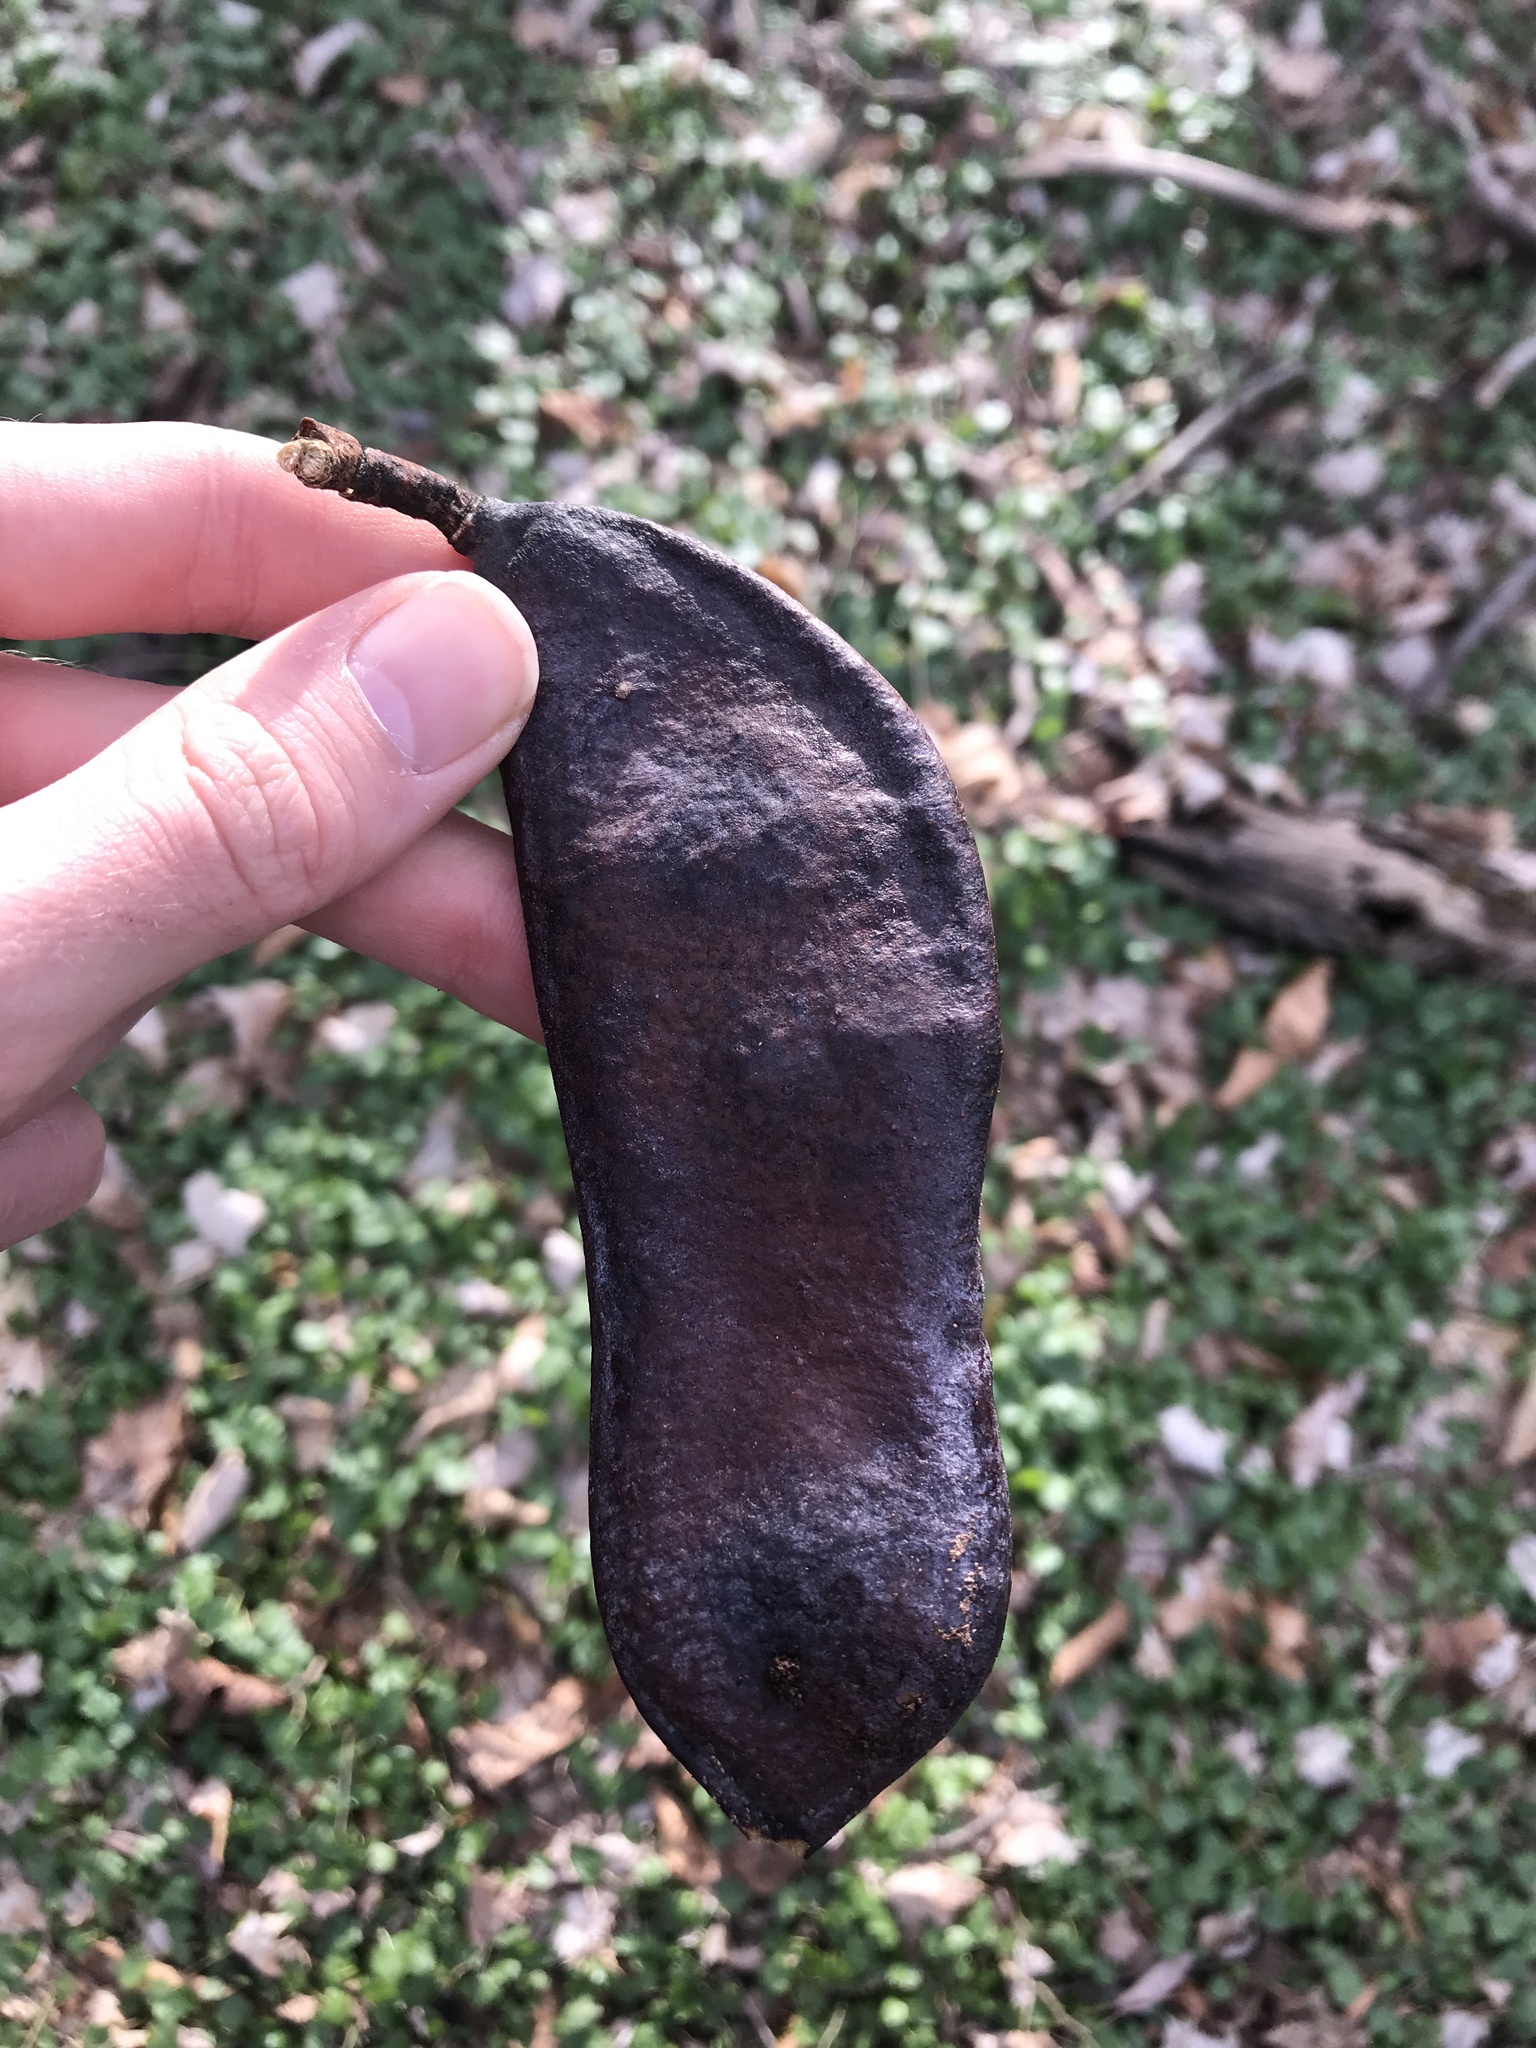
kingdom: Plantae
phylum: Tracheophyta
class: Magnoliopsida
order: Fabales
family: Fabaceae
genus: Gymnocladus
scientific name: Gymnocladus dioicus
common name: Kentucky coffee-tree
